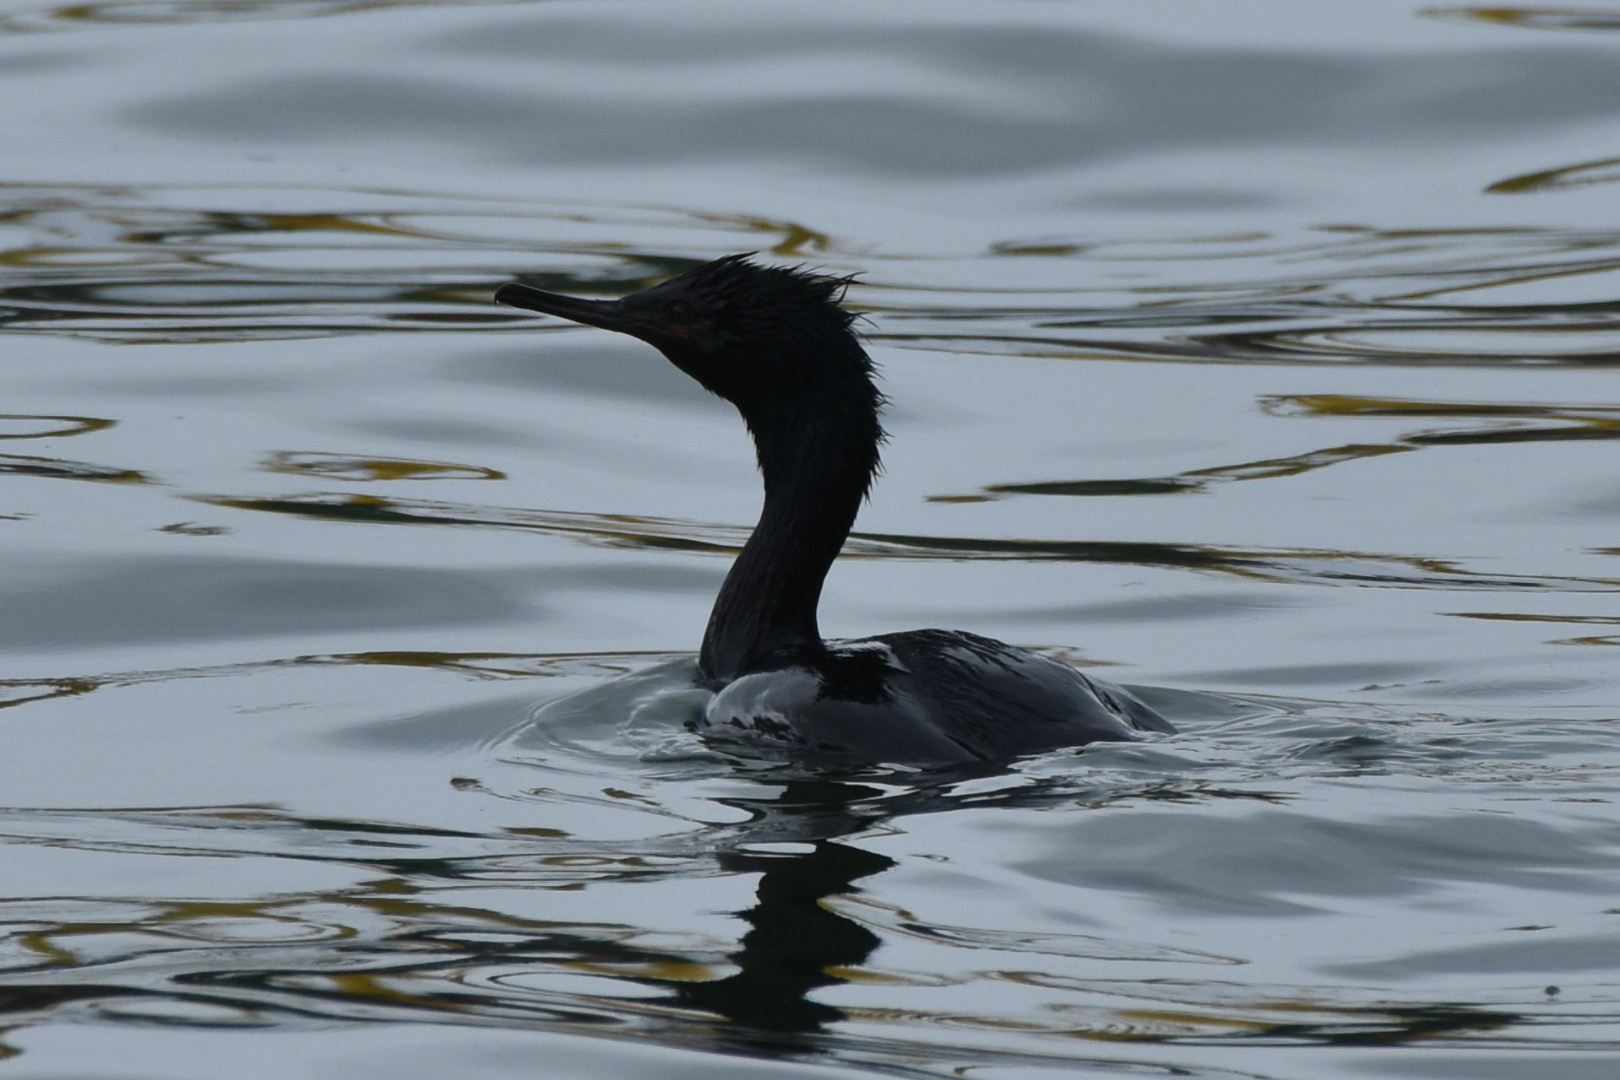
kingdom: Animalia
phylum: Chordata
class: Aves
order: Suliformes
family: Phalacrocoracidae
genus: Phalacrocorax
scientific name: Phalacrocorax pelagicus
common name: Pelagic cormorant
